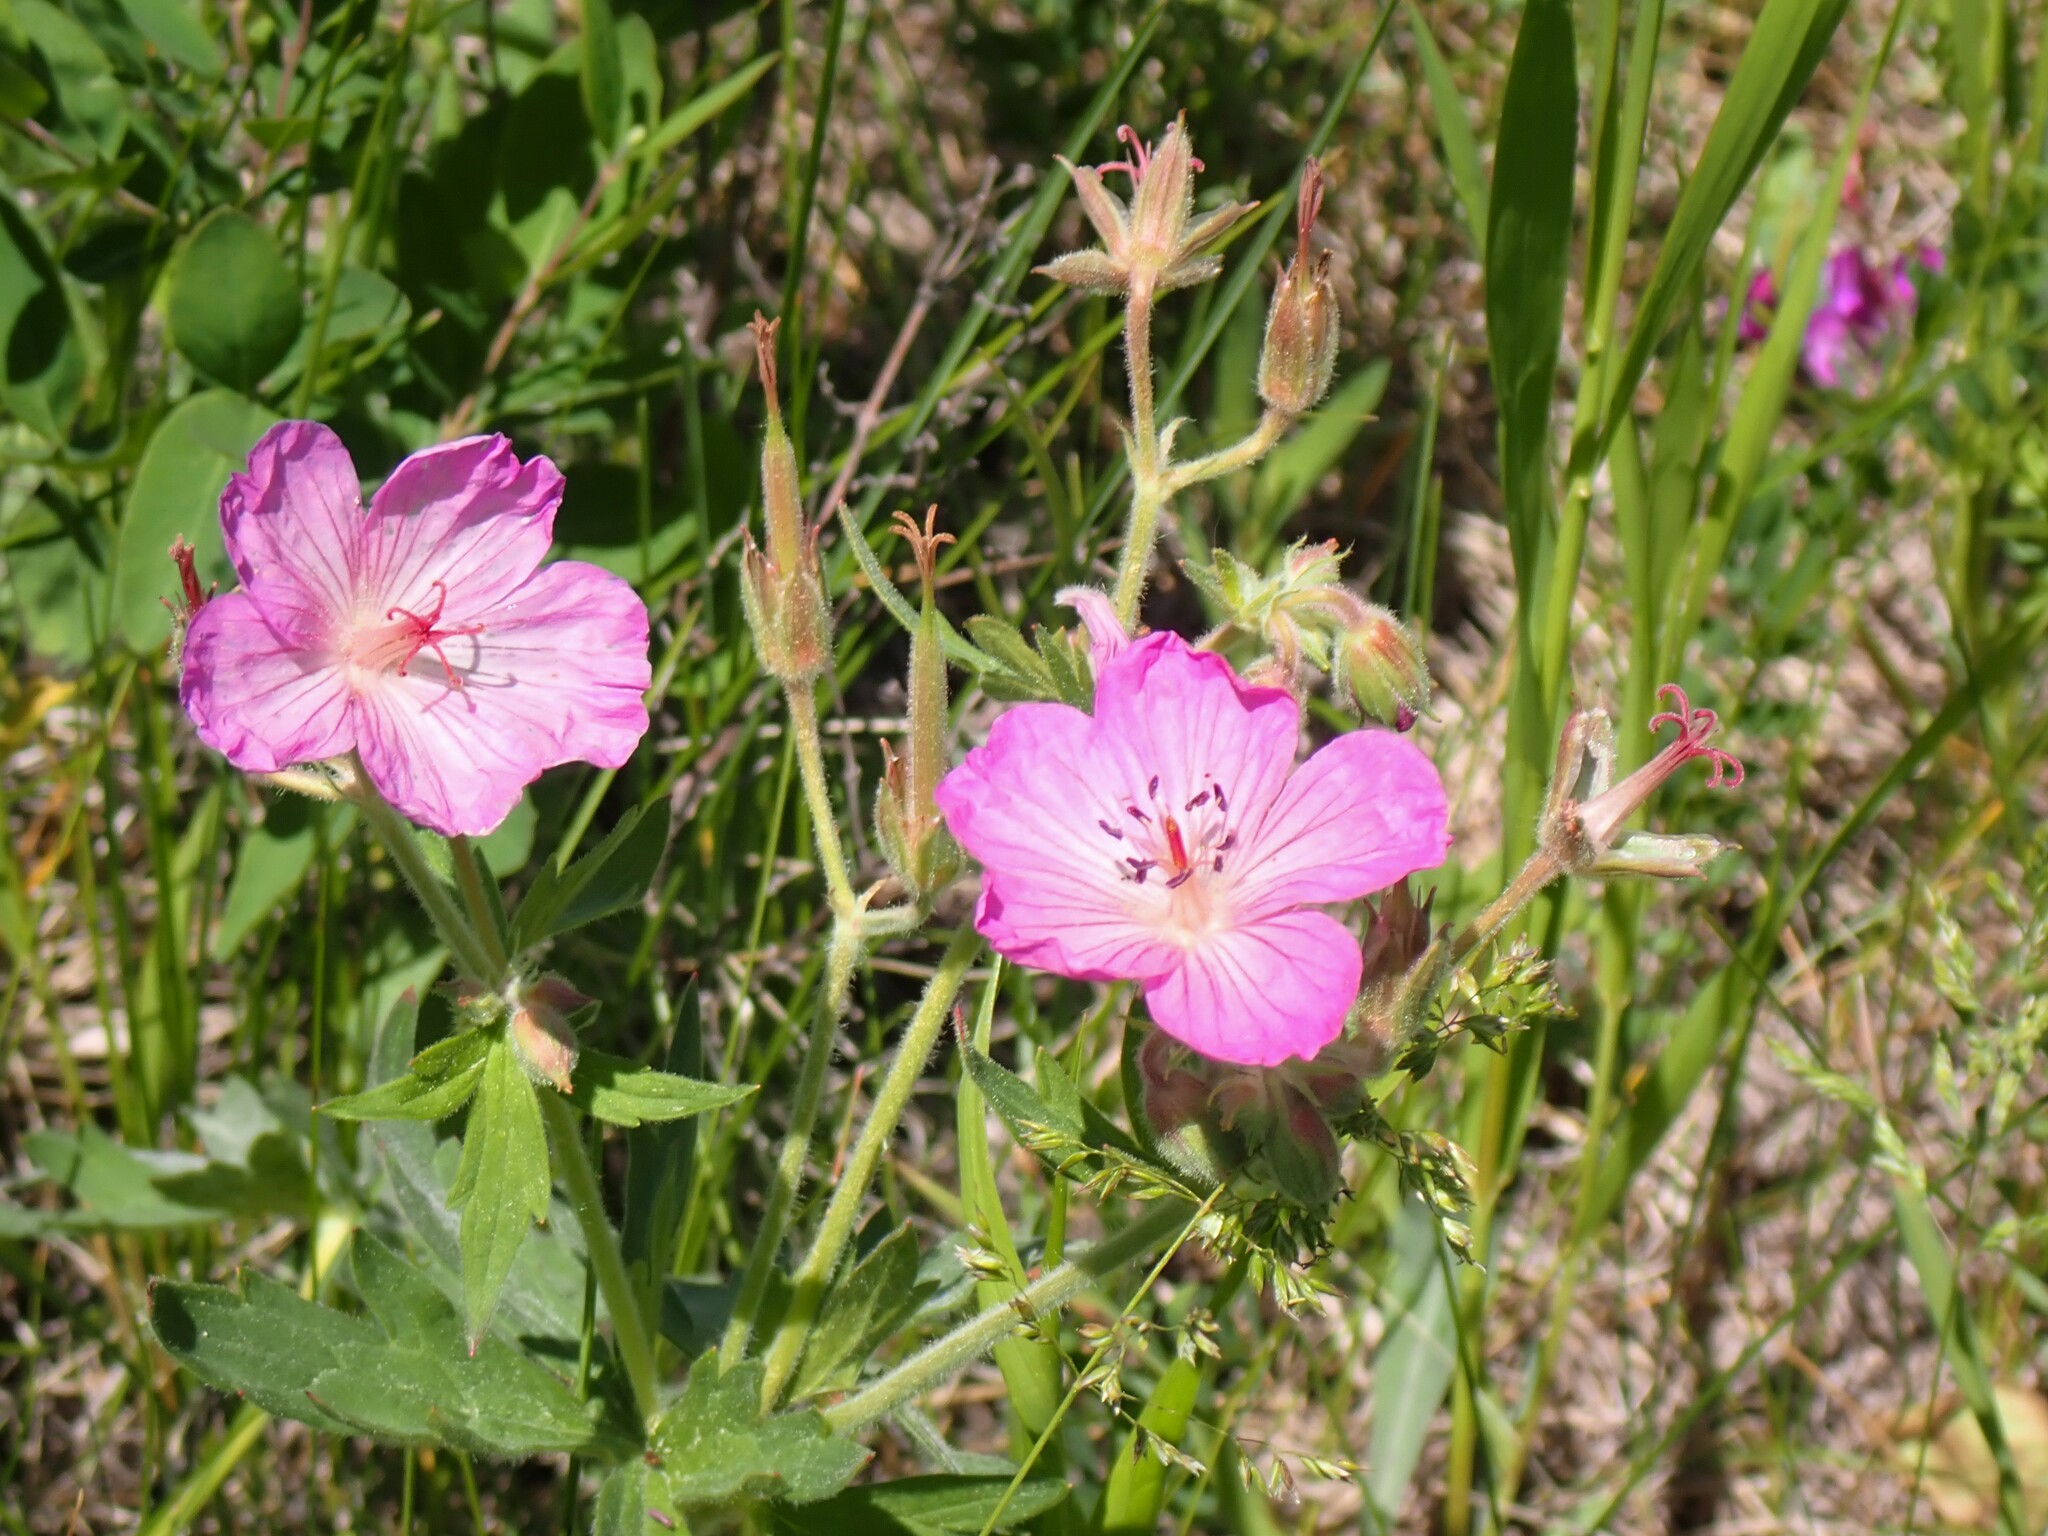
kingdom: Plantae
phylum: Tracheophyta
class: Magnoliopsida
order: Geraniales
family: Geraniaceae
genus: Geranium
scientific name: Geranium viscosissimum
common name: Purple geranium
